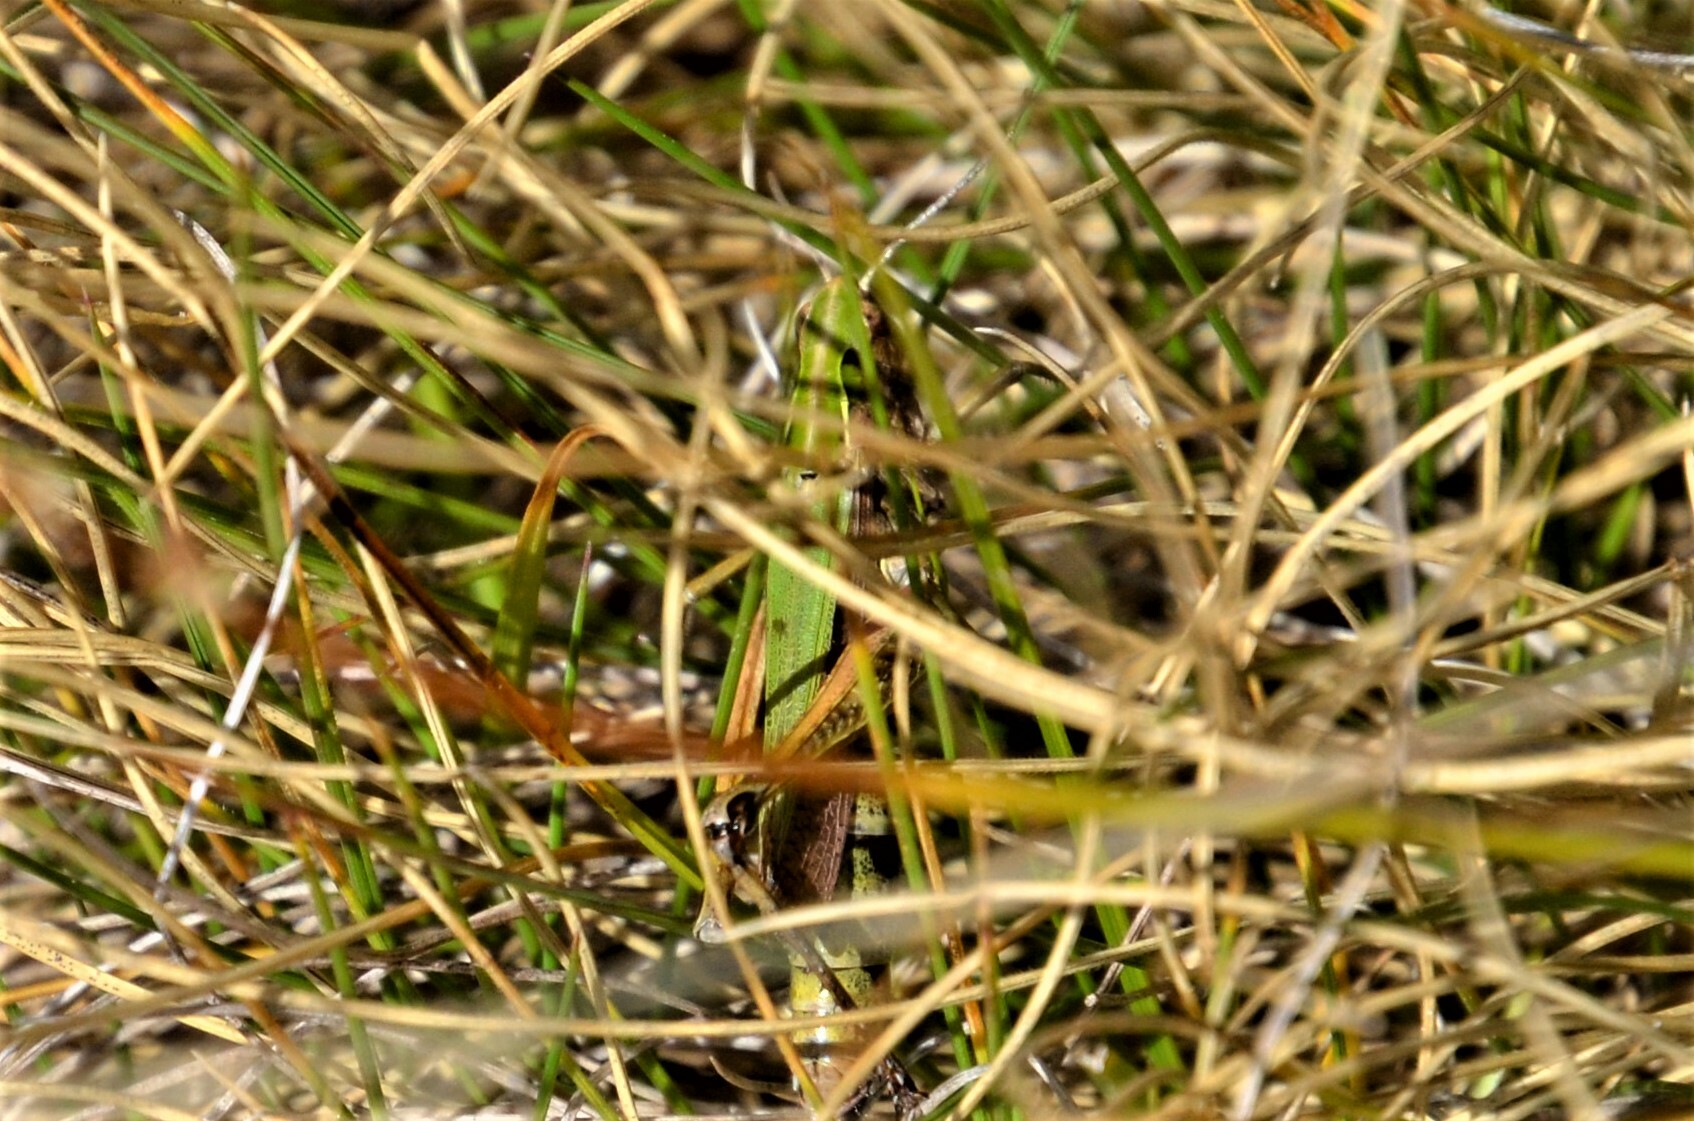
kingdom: Animalia
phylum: Arthropoda
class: Insecta
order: Orthoptera
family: Acrididae
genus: Omocestus
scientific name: Omocestus viridulus
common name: Common green grasshopper
